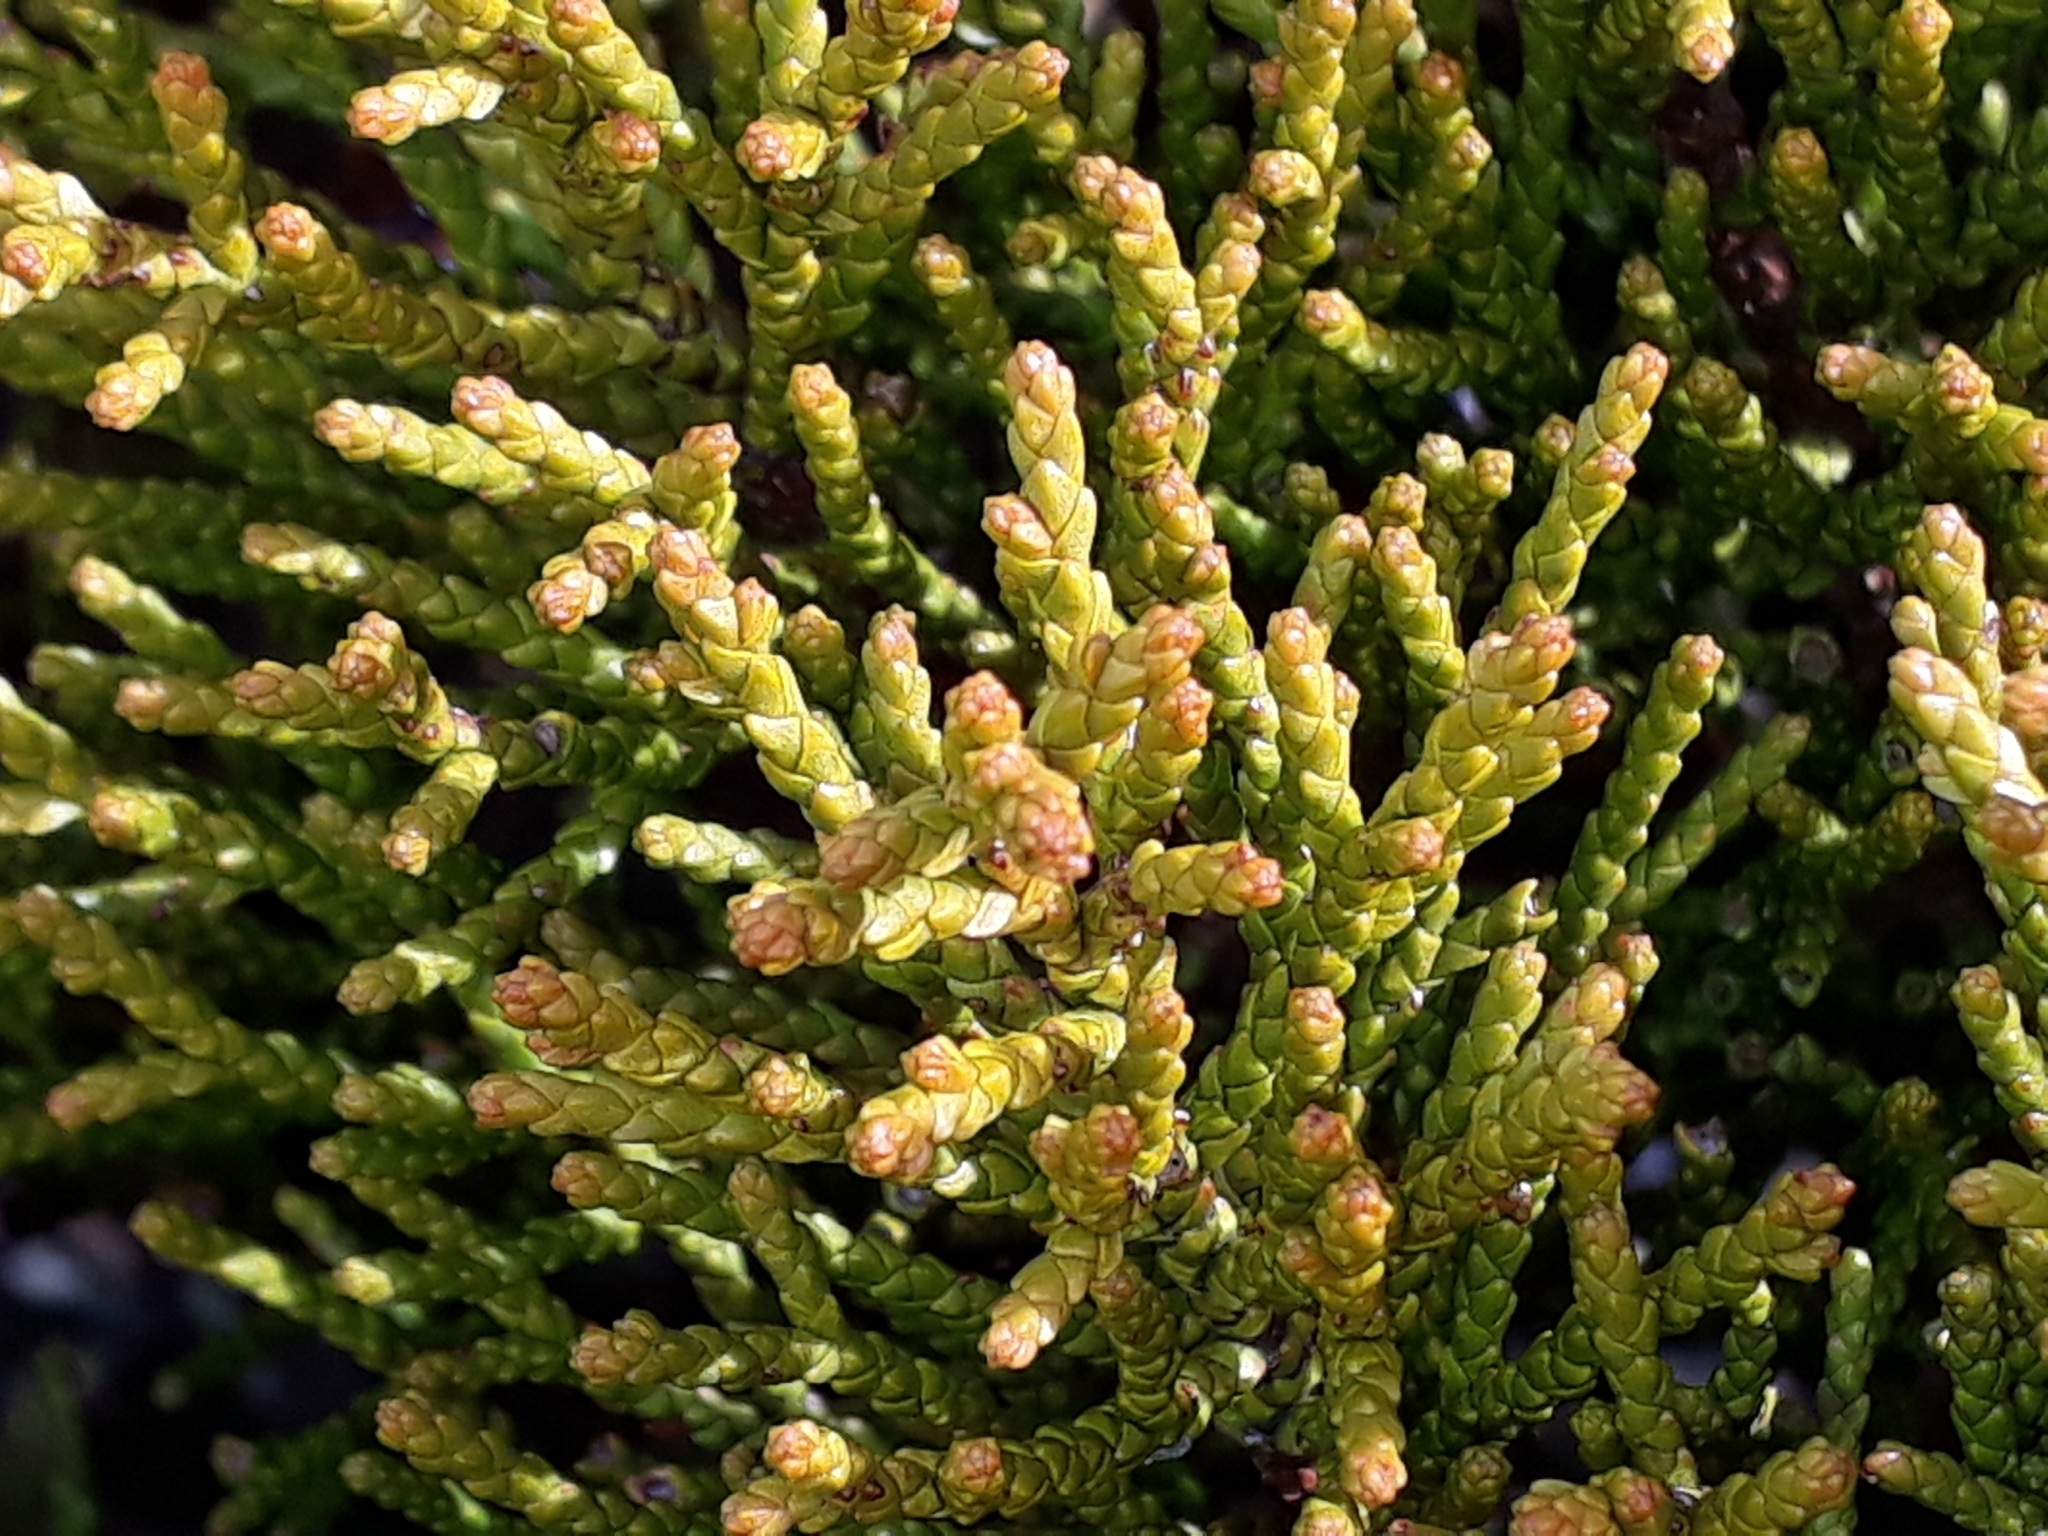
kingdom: Plantae
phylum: Tracheophyta
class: Magnoliopsida
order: Lamiales
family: Plantaginaceae
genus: Veronica
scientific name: Veronica tetragona
